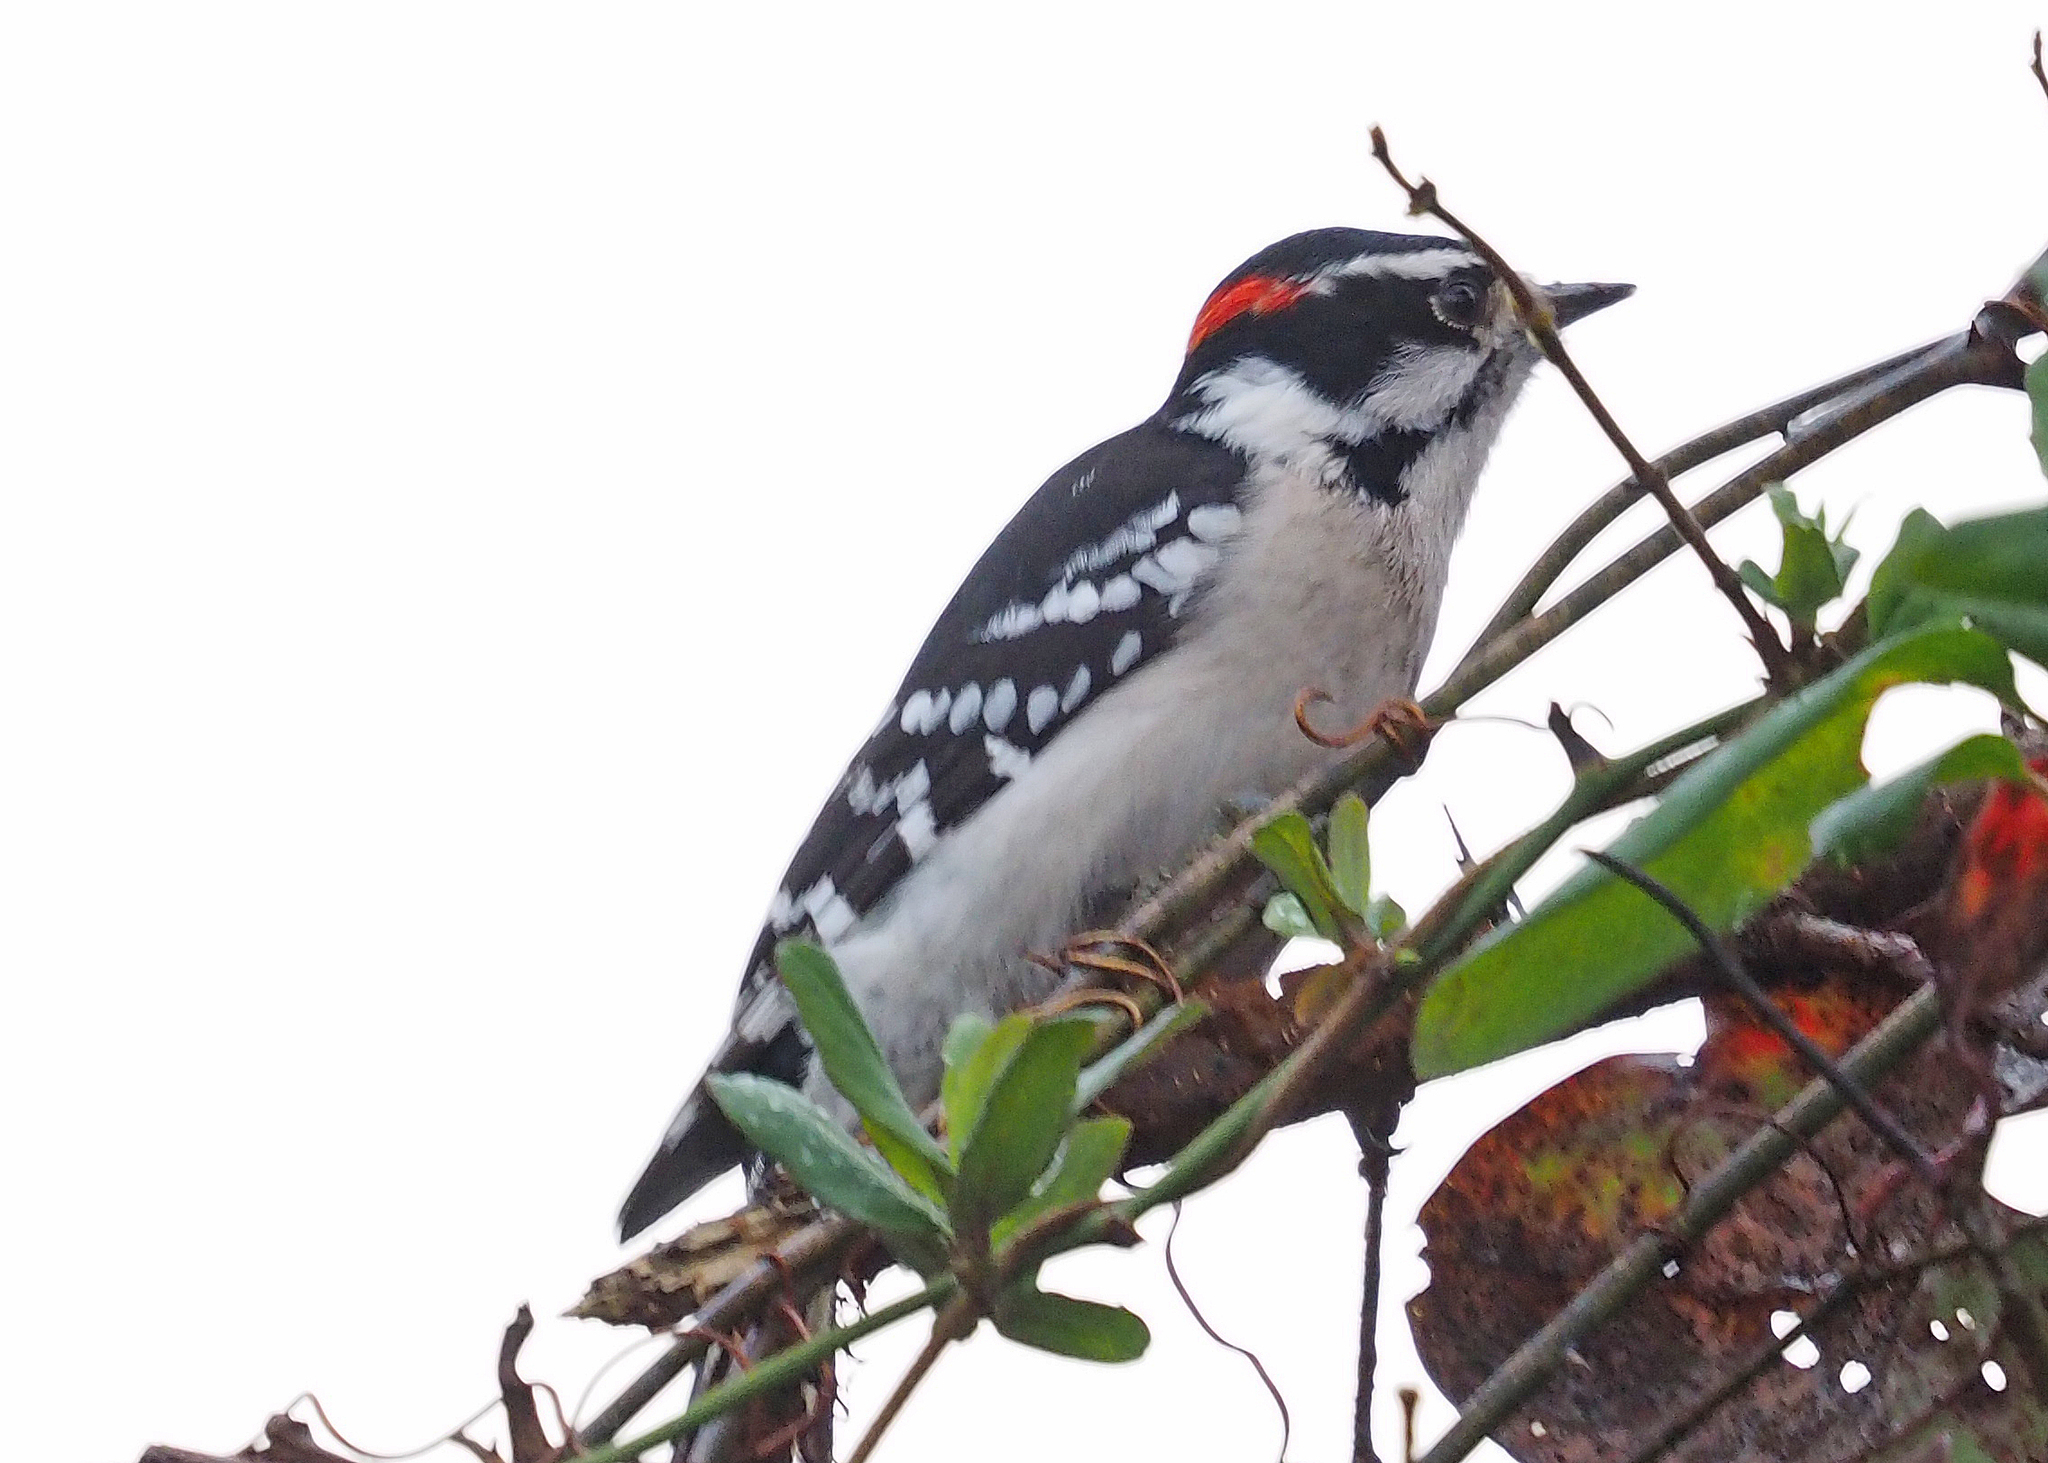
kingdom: Animalia
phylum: Chordata
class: Aves
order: Piciformes
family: Picidae
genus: Dryobates
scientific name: Dryobates pubescens
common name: Downy woodpecker
